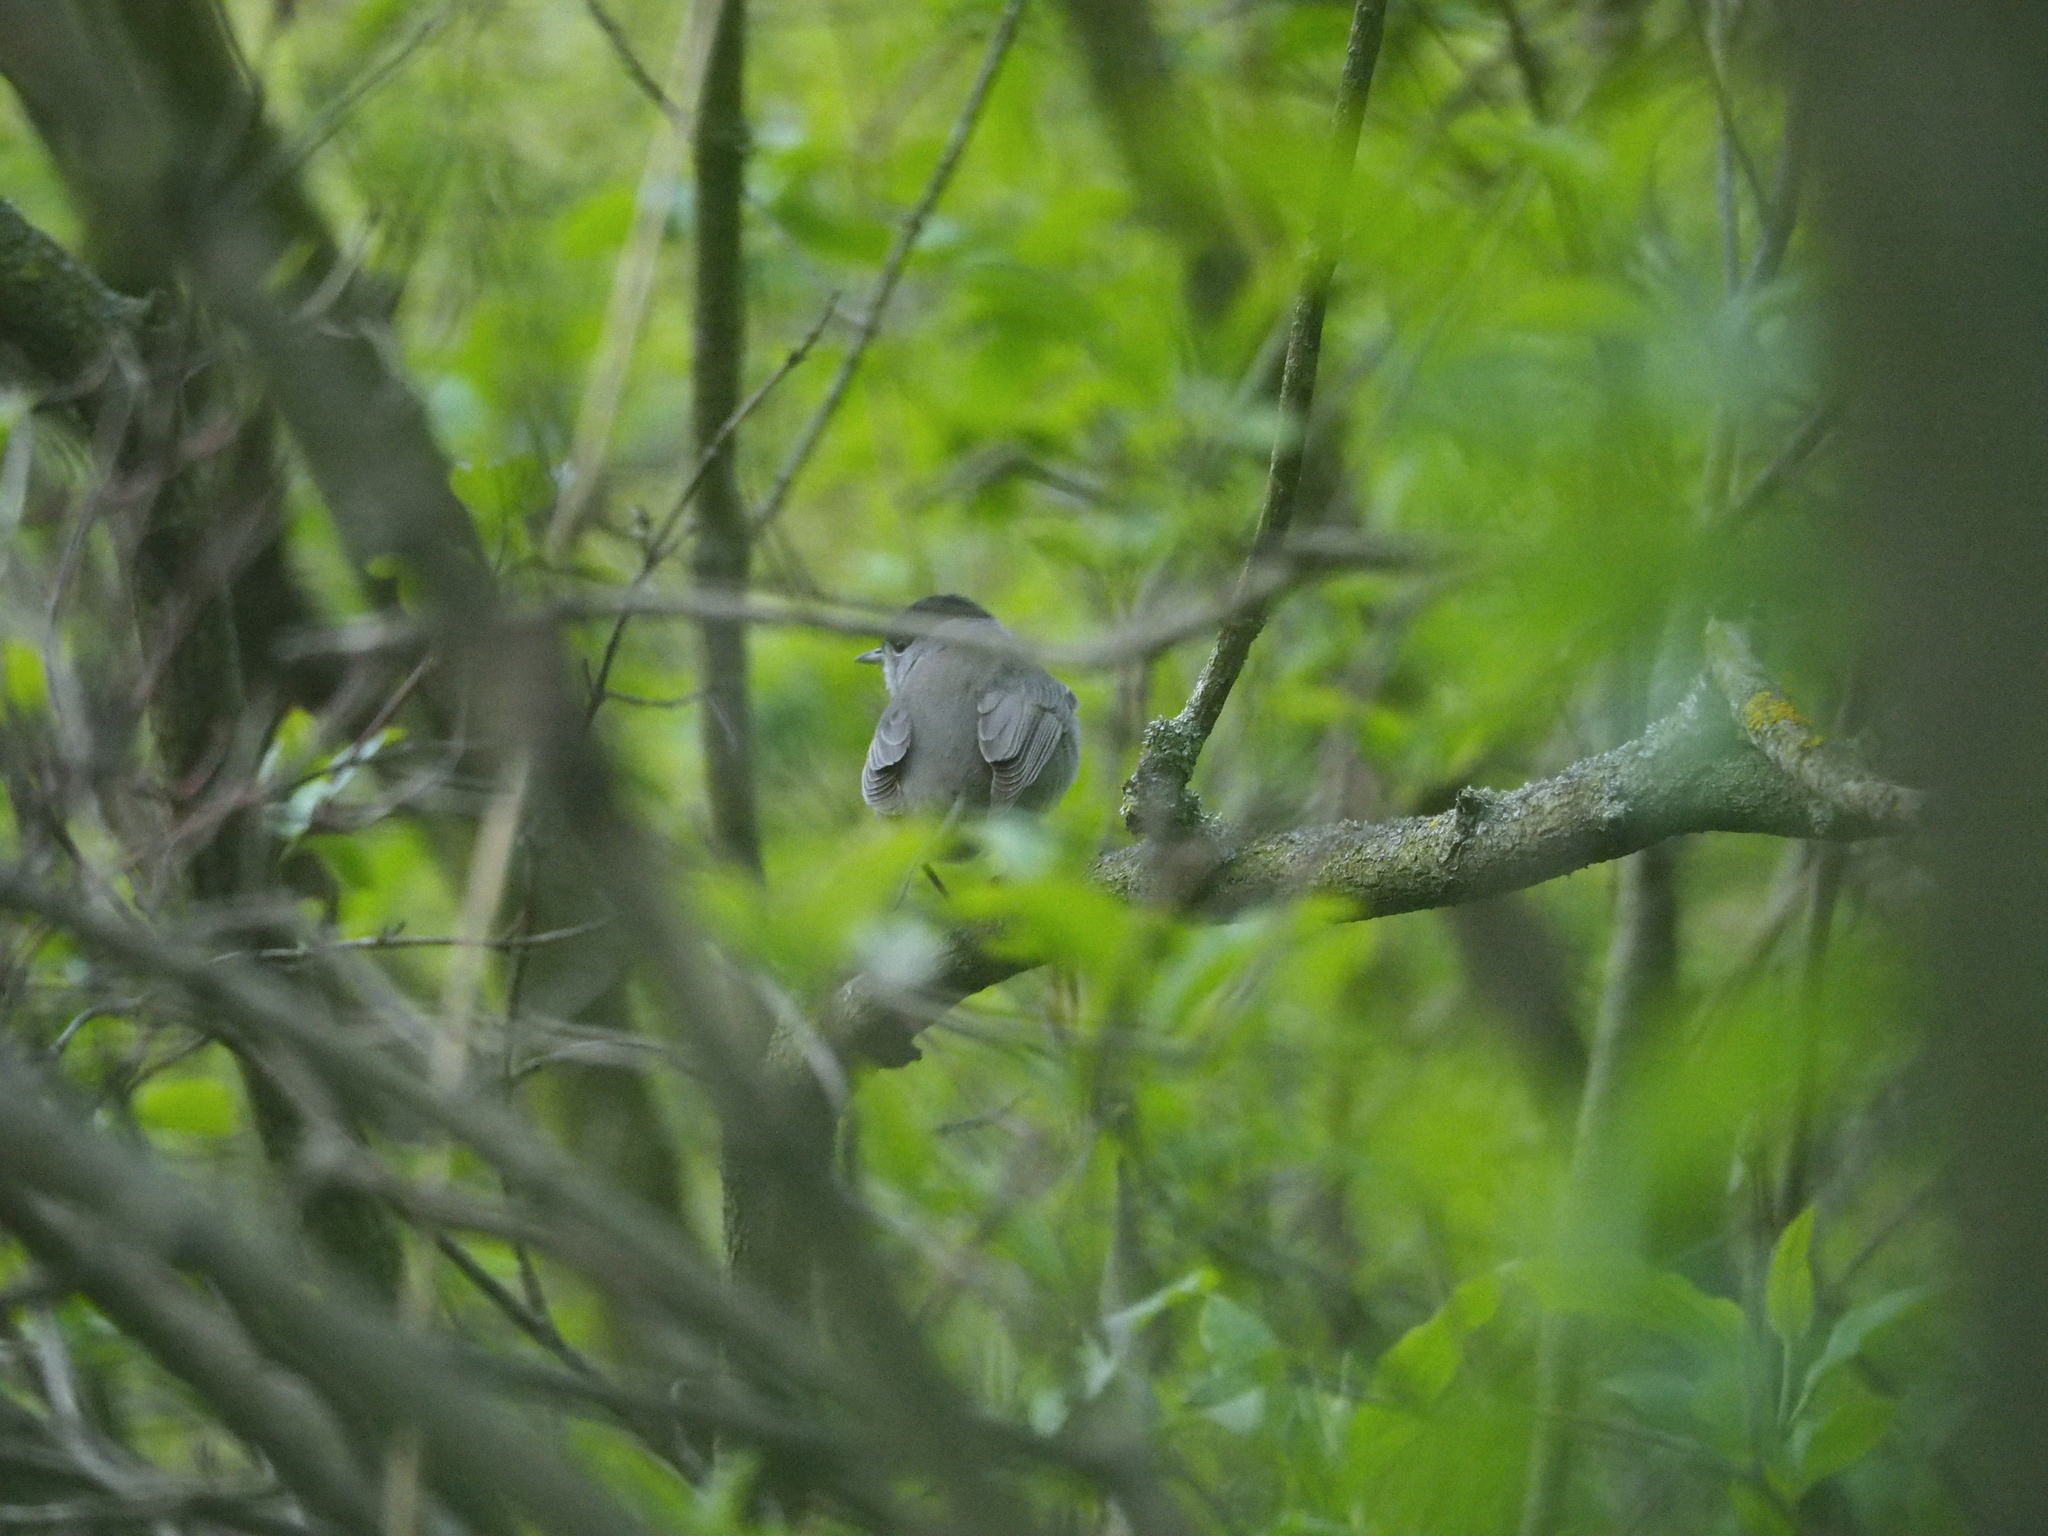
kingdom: Animalia
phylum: Chordata
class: Aves
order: Passeriformes
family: Sylviidae
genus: Sylvia
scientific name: Sylvia atricapilla
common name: Eurasian blackcap
